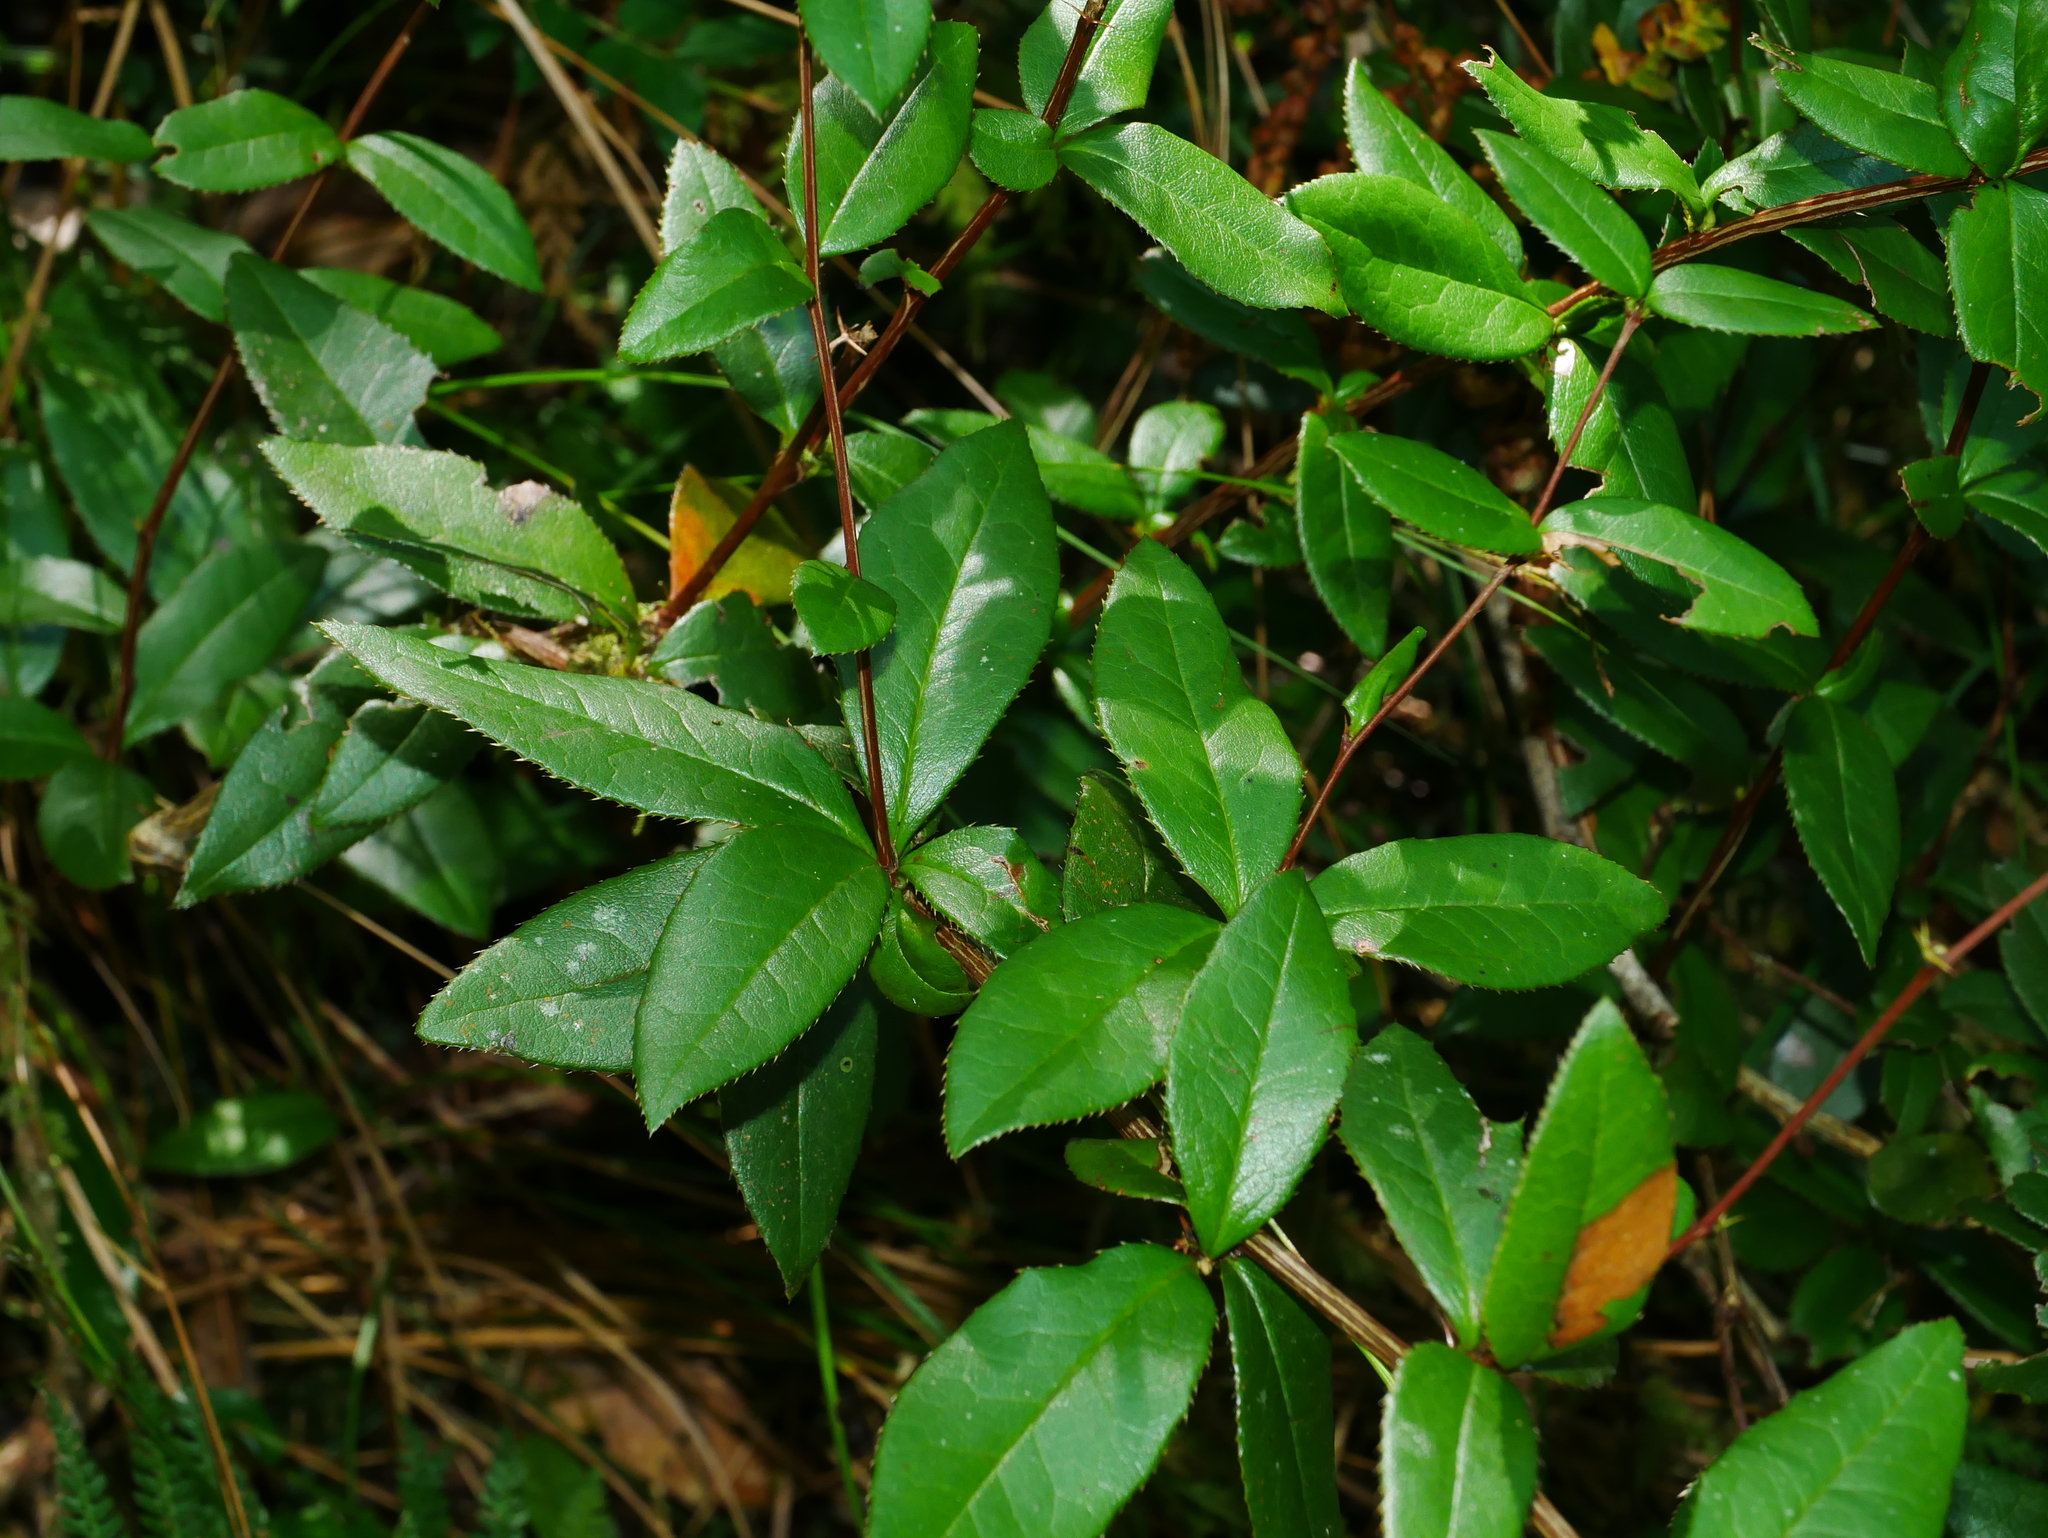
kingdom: Plantae
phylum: Tracheophyta
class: Magnoliopsida
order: Ranunculales
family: Berberidaceae
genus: Berberis
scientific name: Berberis schaaliae
